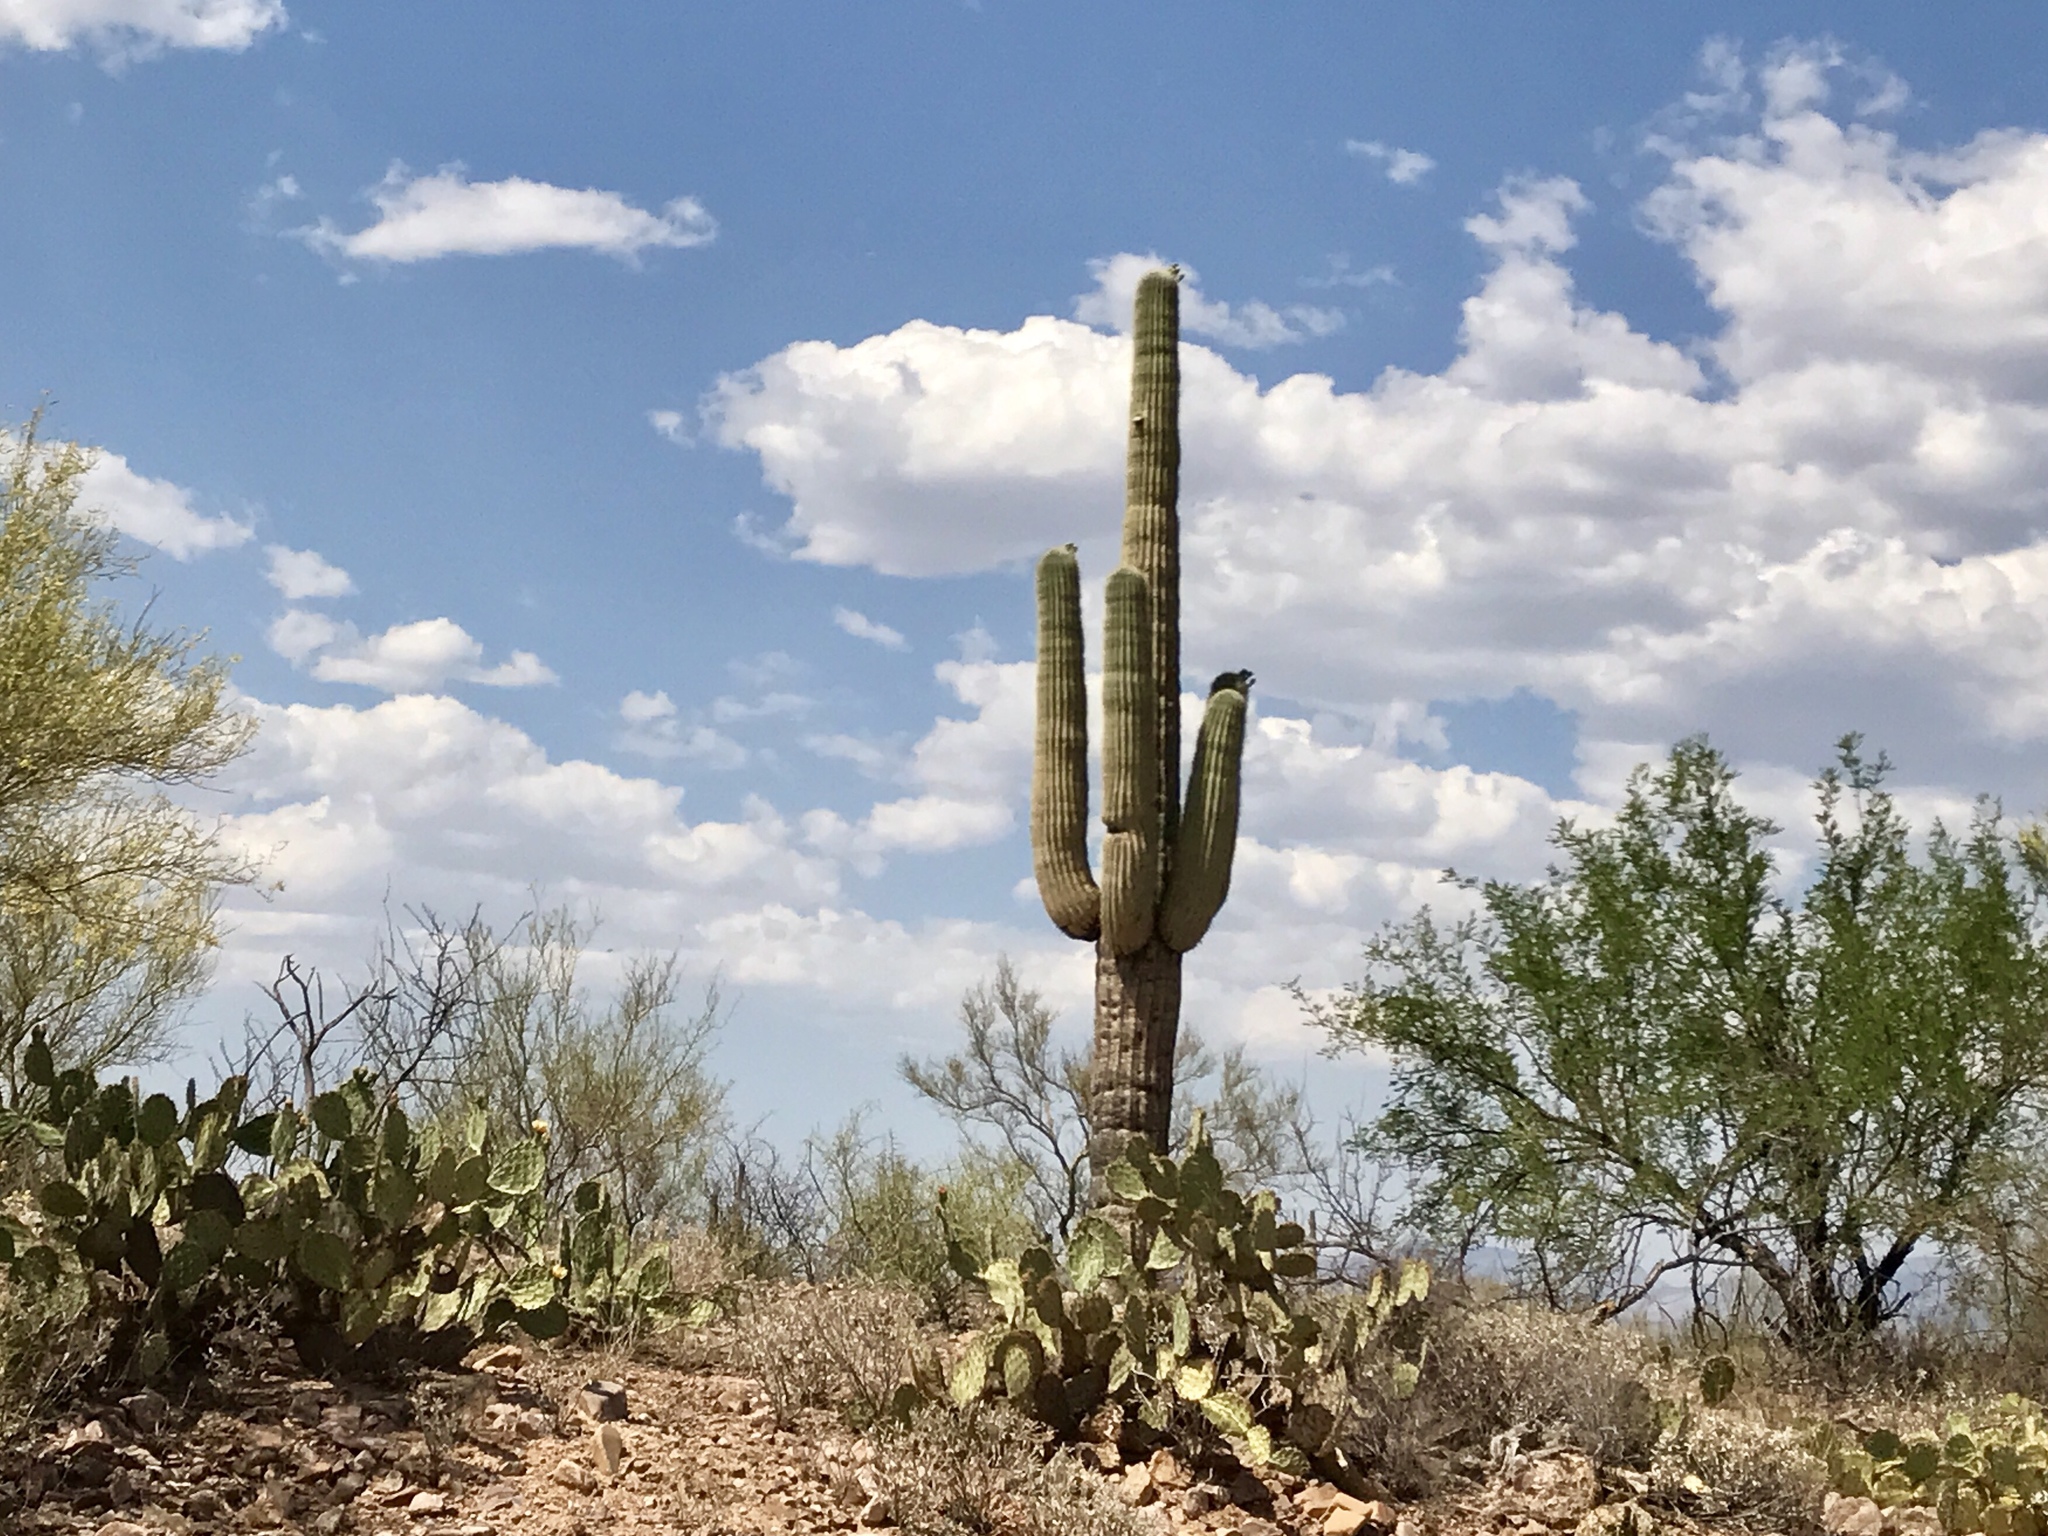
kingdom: Plantae
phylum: Tracheophyta
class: Magnoliopsida
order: Caryophyllales
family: Cactaceae
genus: Carnegiea
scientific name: Carnegiea gigantea
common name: Saguaro
